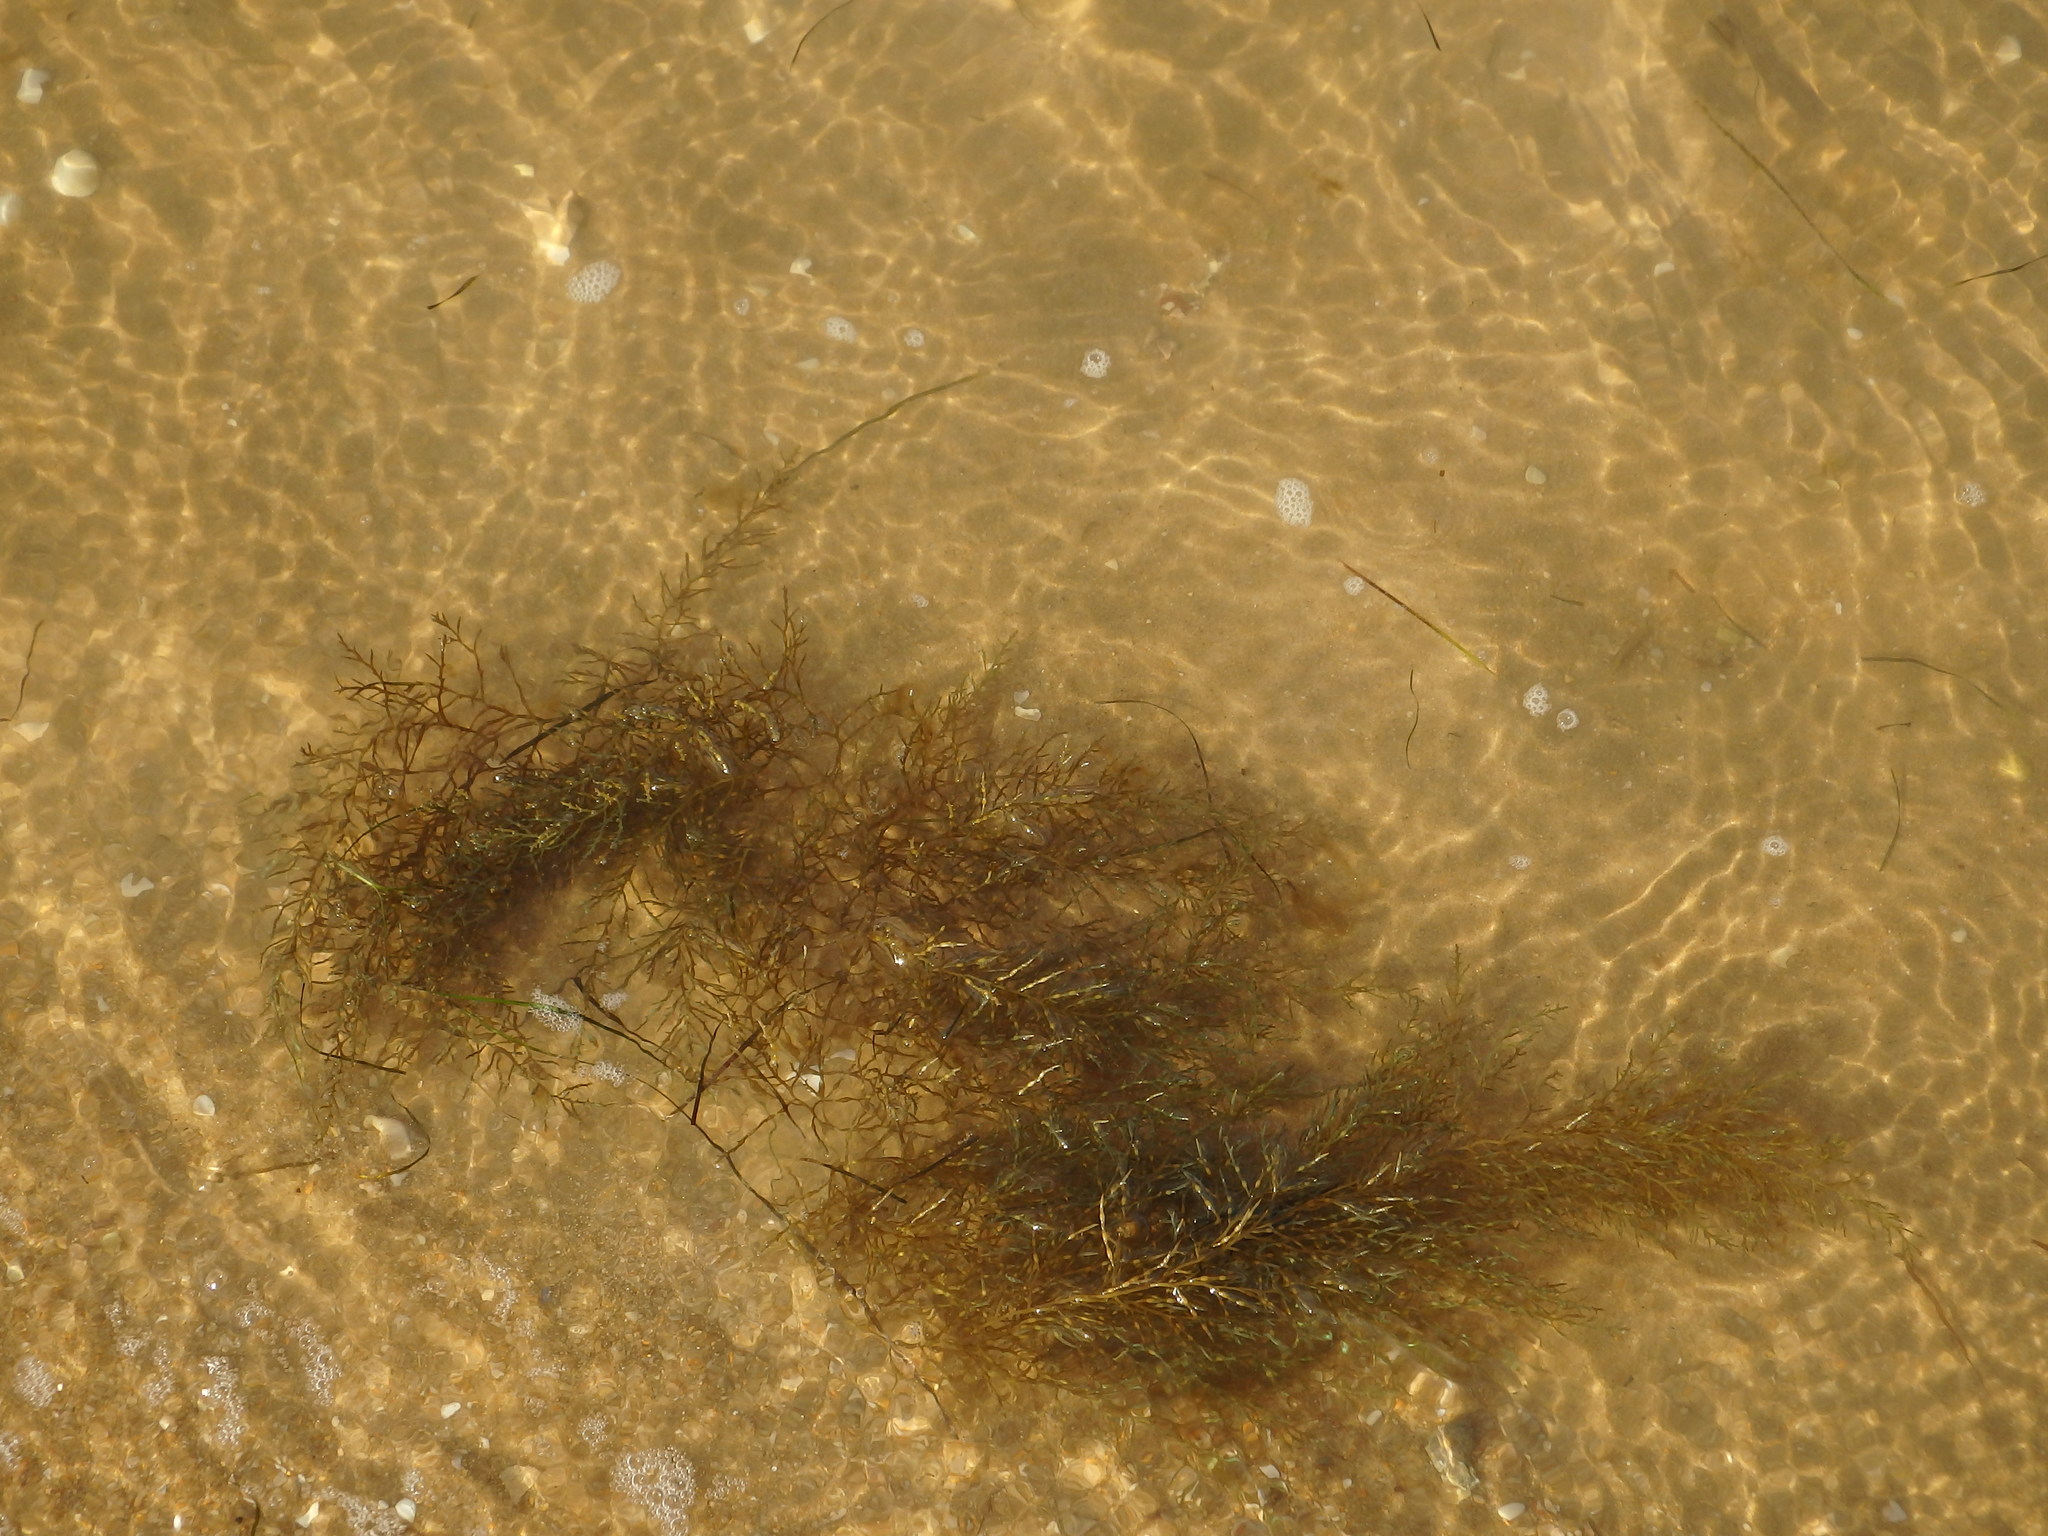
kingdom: Chromista
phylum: Ochrophyta
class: Phaeophyceae
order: Fucales
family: Sargassaceae
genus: Cystoseira
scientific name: Cystoseira Gongolaria usneoides
